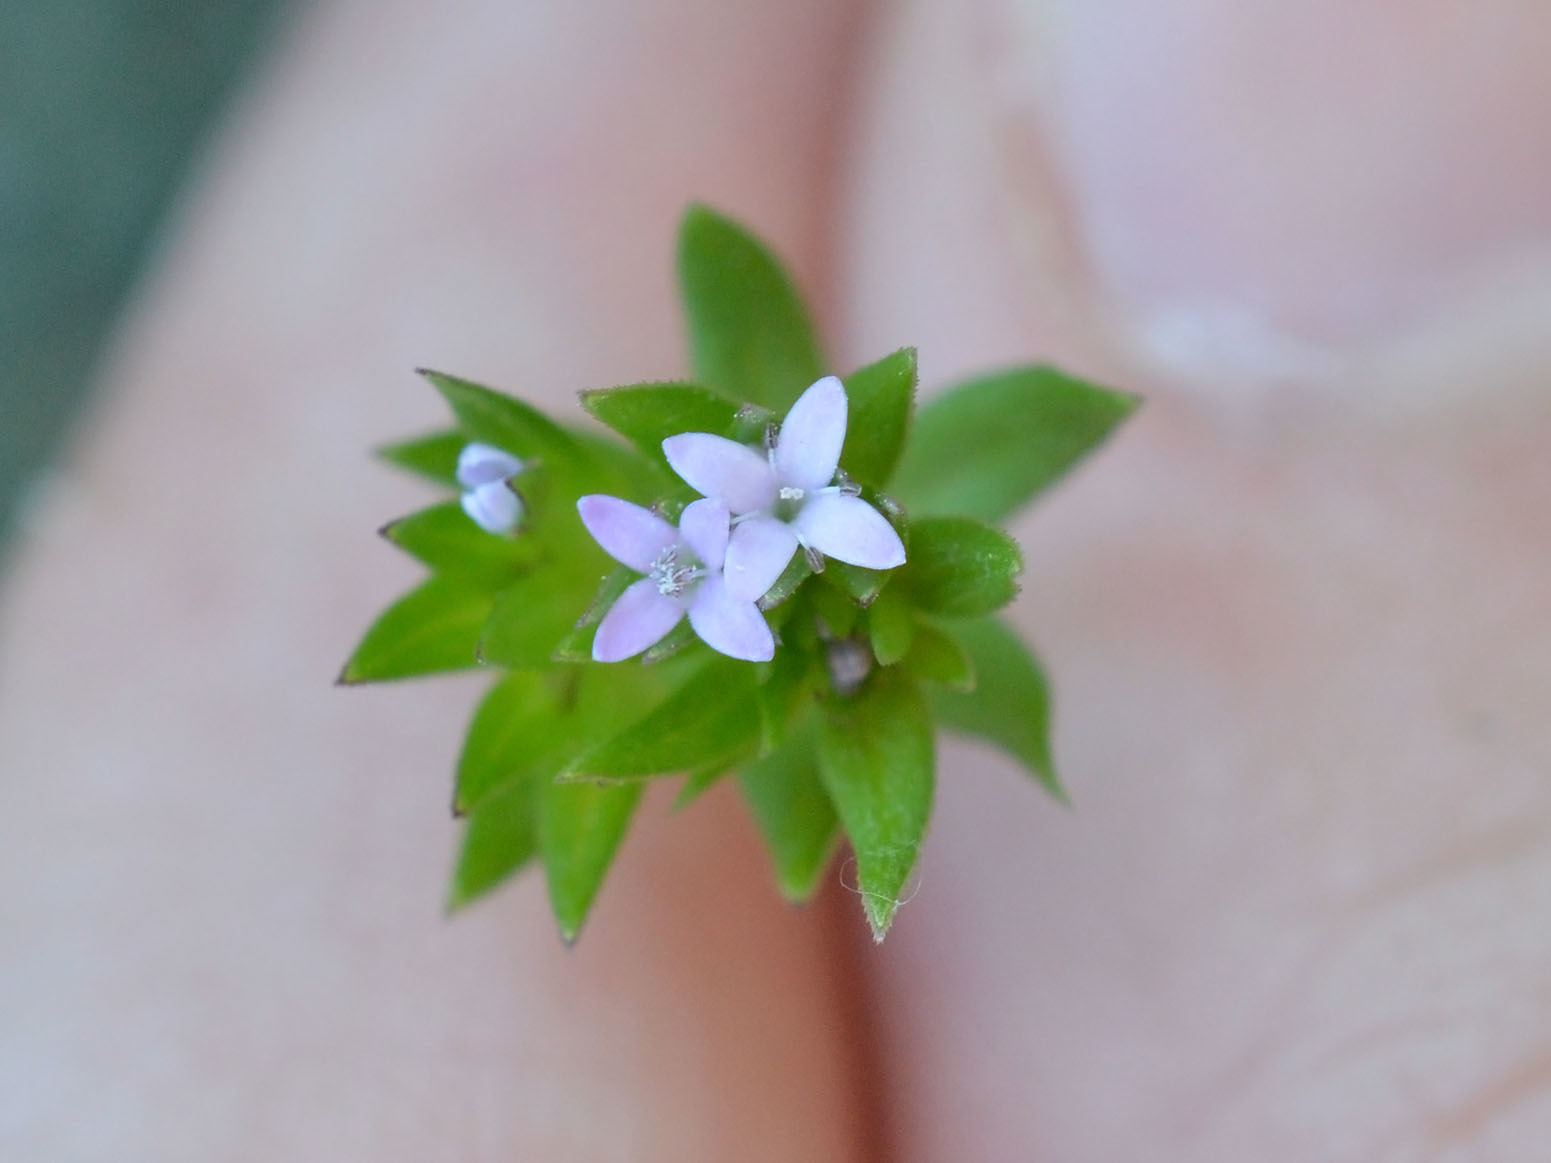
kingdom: Plantae
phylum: Tracheophyta
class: Magnoliopsida
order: Gentianales
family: Rubiaceae
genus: Sherardia
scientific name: Sherardia arvensis
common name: Field madder
